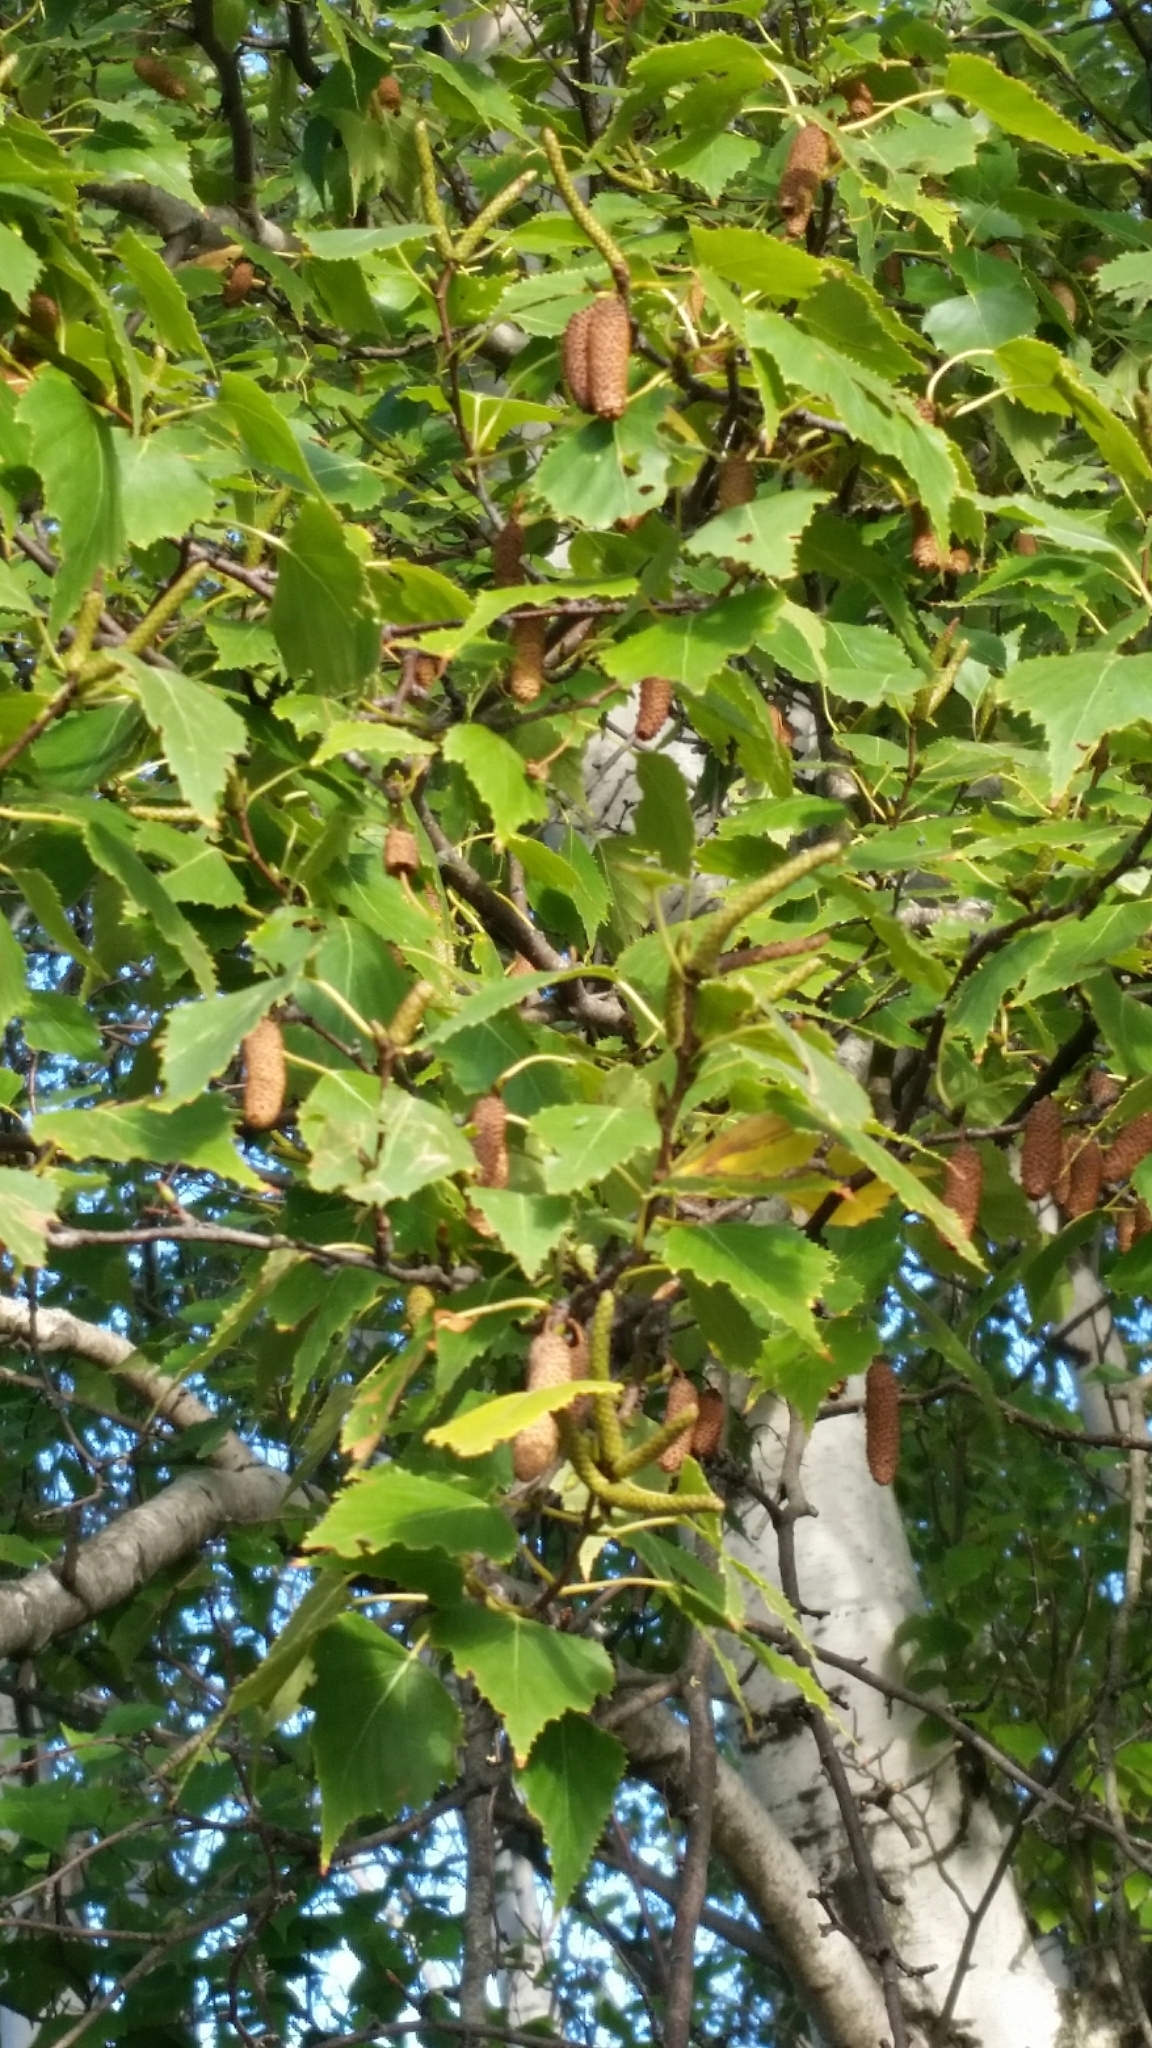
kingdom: Plantae
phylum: Tracheophyta
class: Magnoliopsida
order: Fagales
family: Betulaceae
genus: Betula
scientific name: Betula pendula
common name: Silver birch
